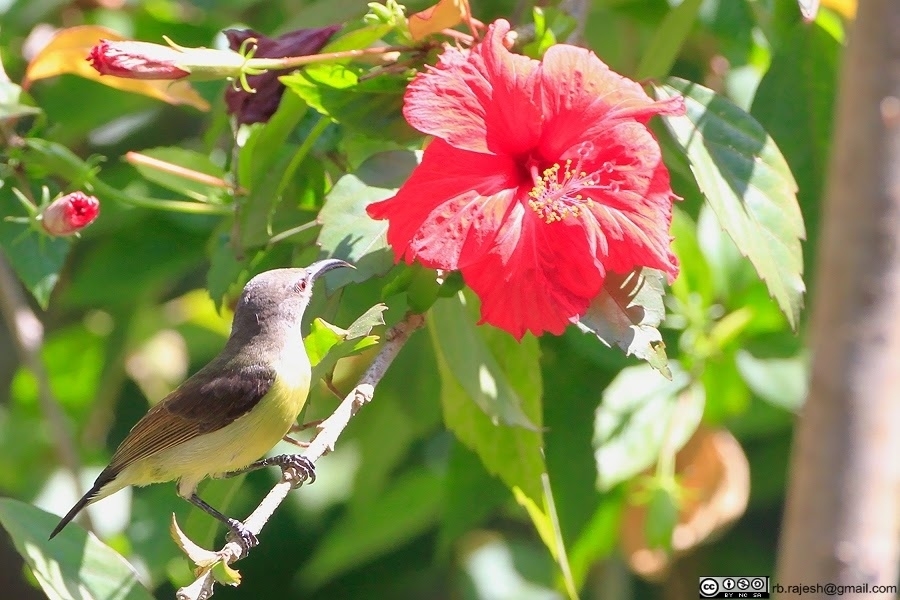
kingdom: Animalia
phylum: Chordata
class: Aves
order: Passeriformes
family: Nectariniidae
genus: Leptocoma
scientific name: Leptocoma zeylonica
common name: Purple-rumped sunbird
